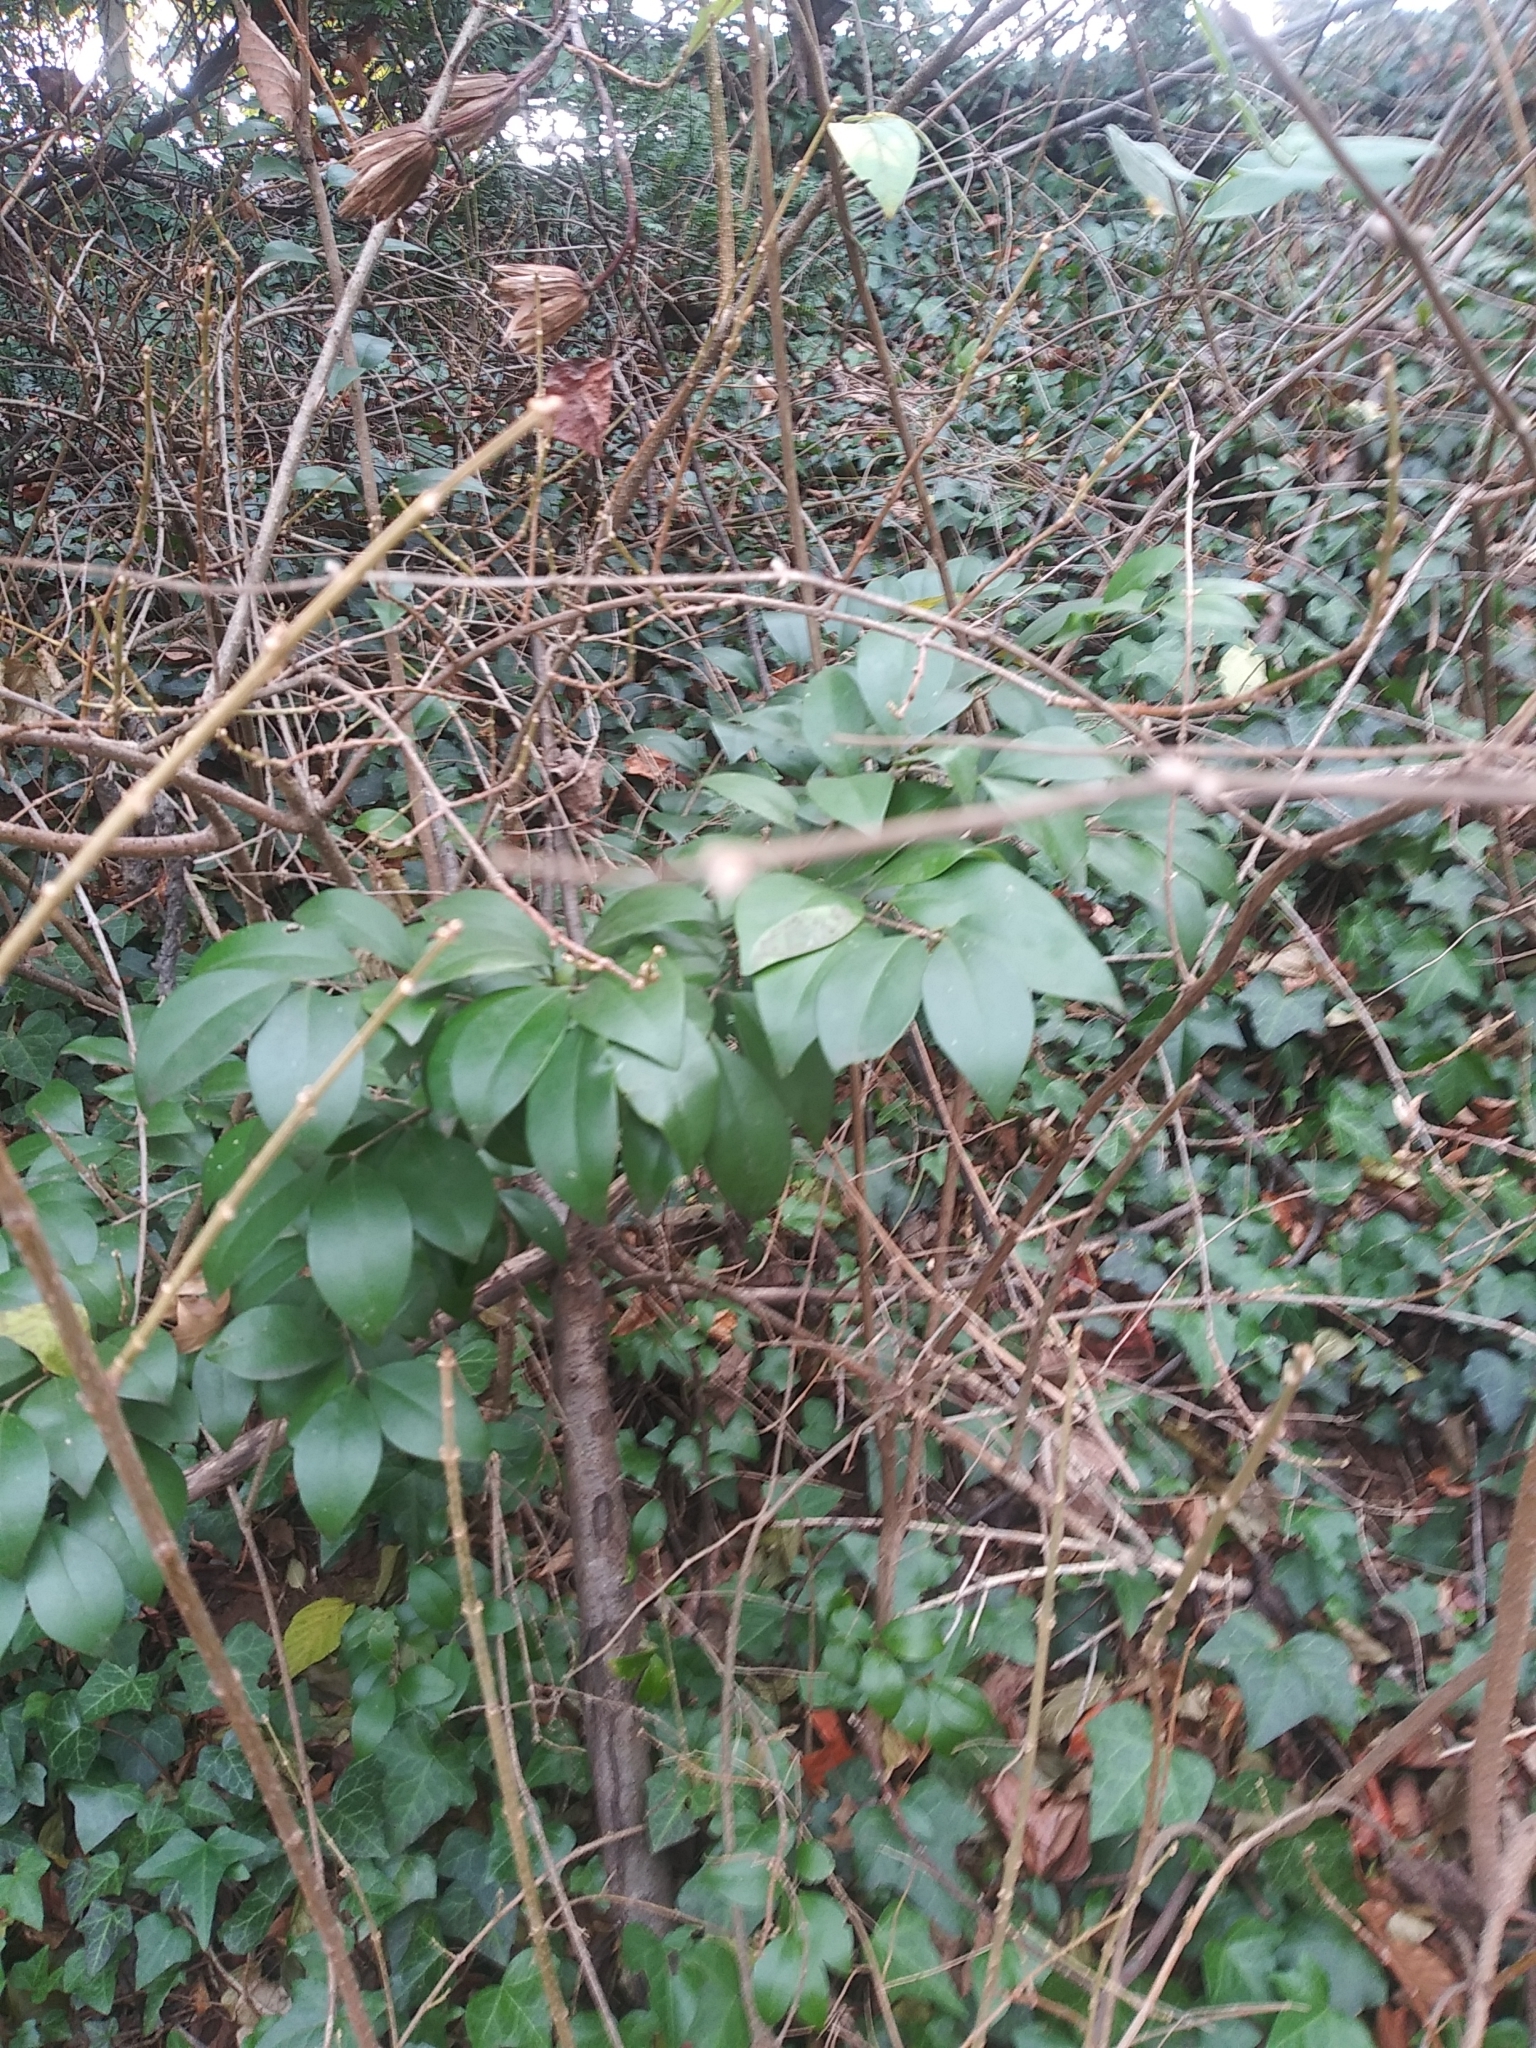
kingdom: Plantae
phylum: Tracheophyta
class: Magnoliopsida
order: Lamiales
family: Oleaceae
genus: Ligustrum
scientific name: Ligustrum lucidum
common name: Glossy privet
